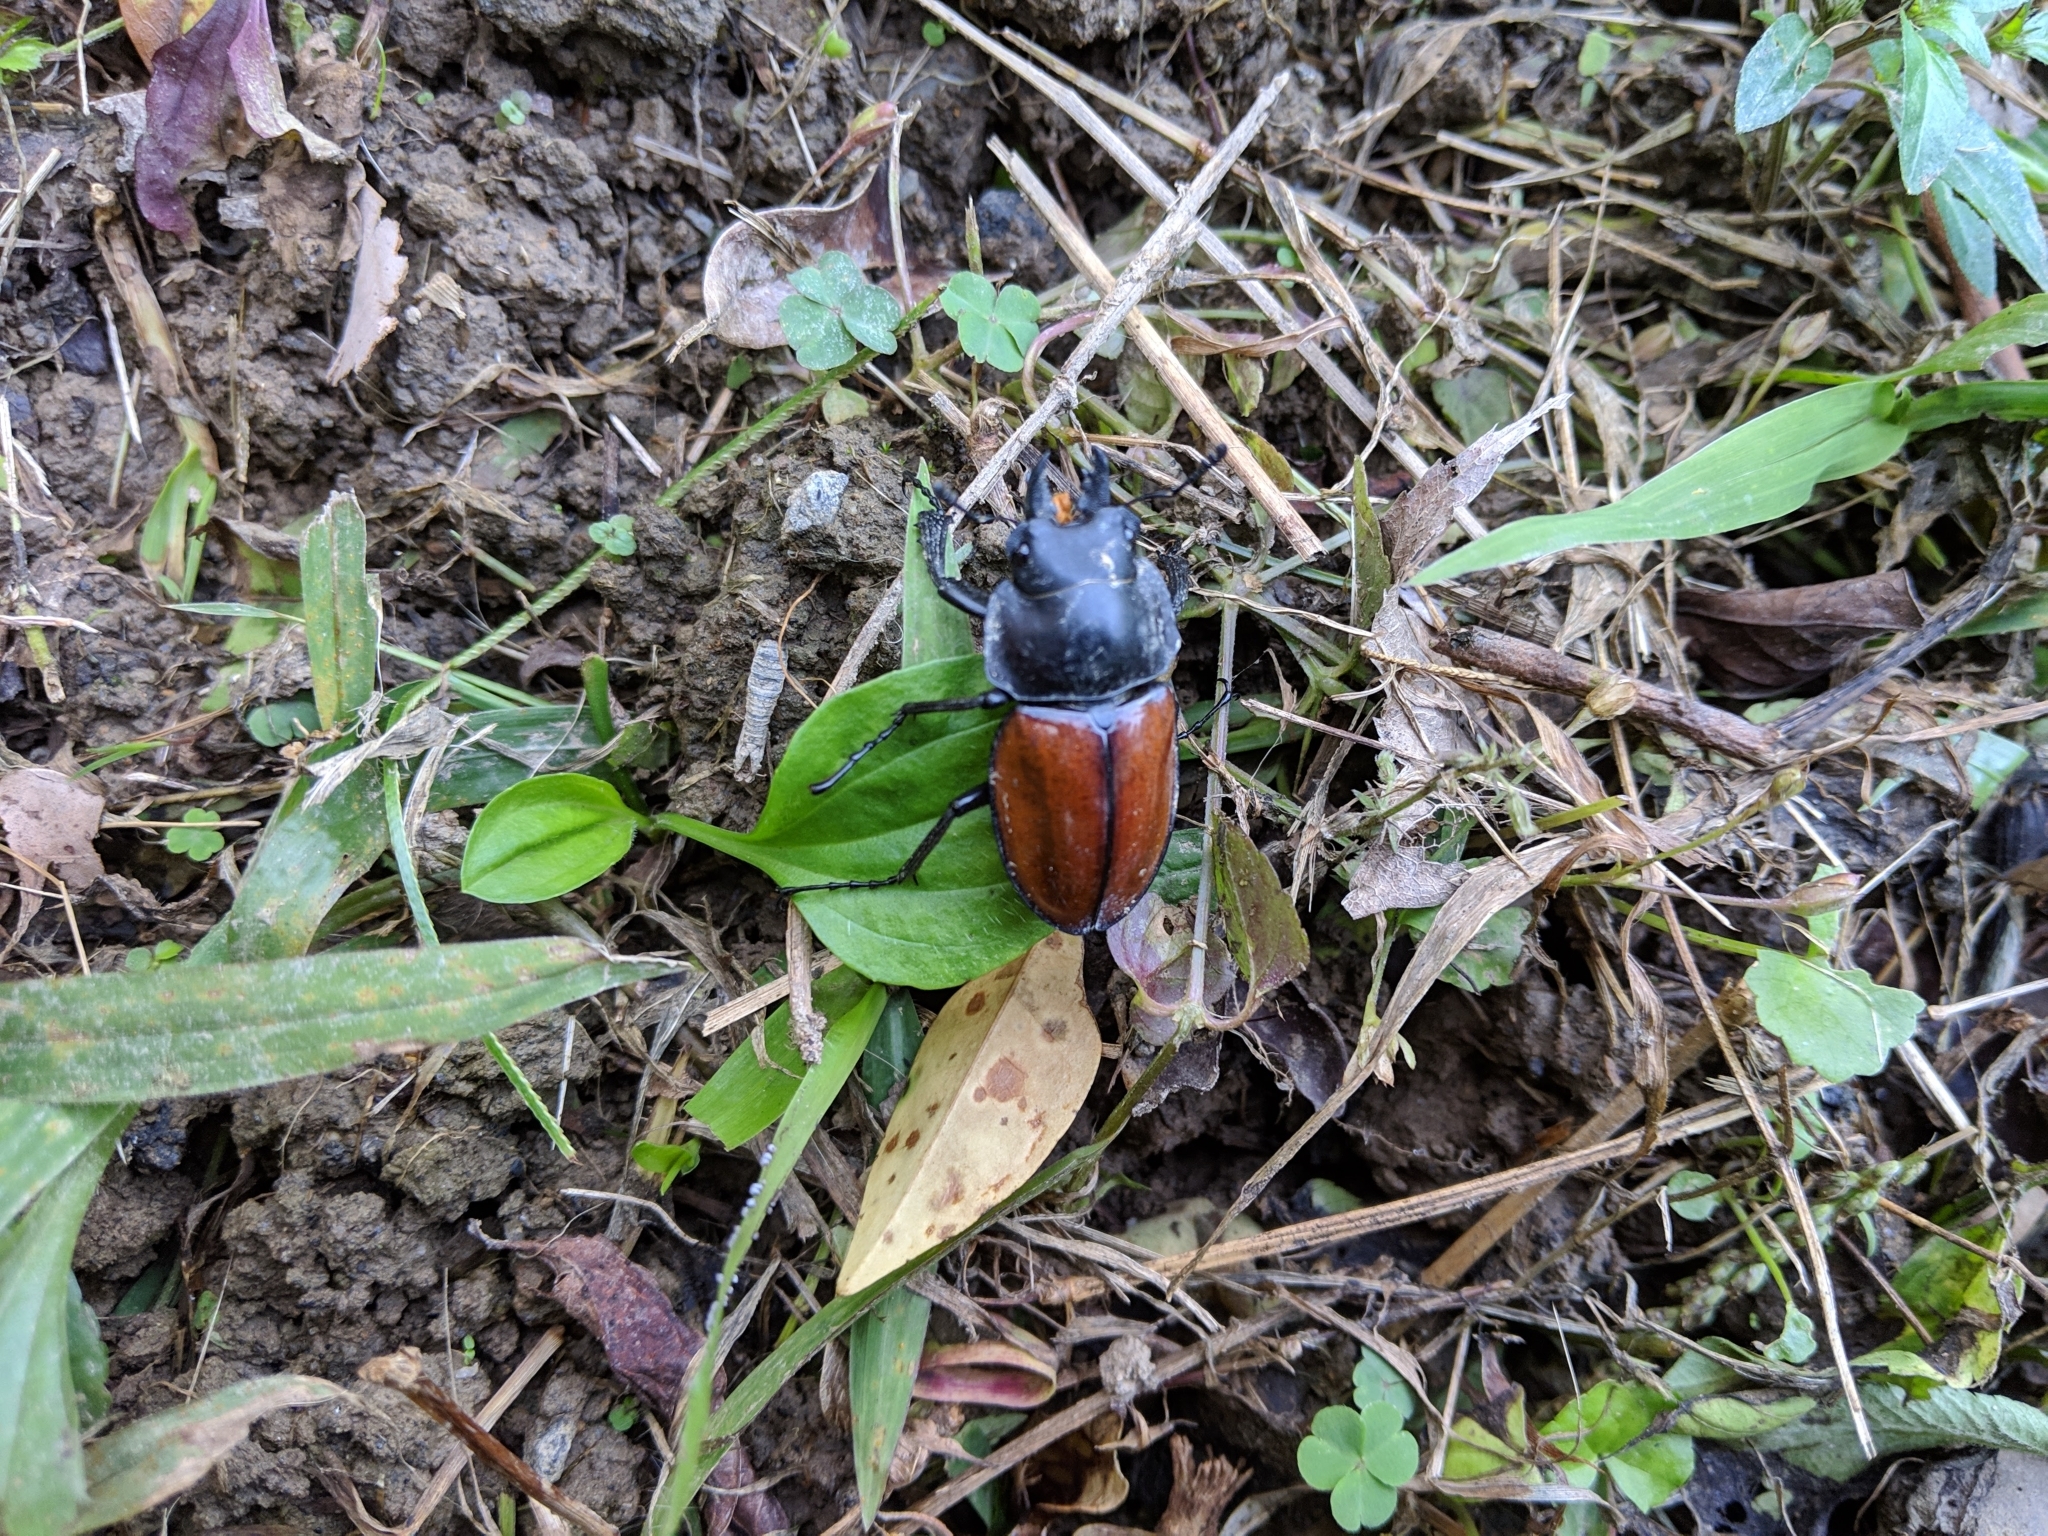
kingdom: Animalia
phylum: Arthropoda
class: Insecta
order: Coleoptera
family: Lucanidae
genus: Neolucanus
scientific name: Neolucanus swinhoei
